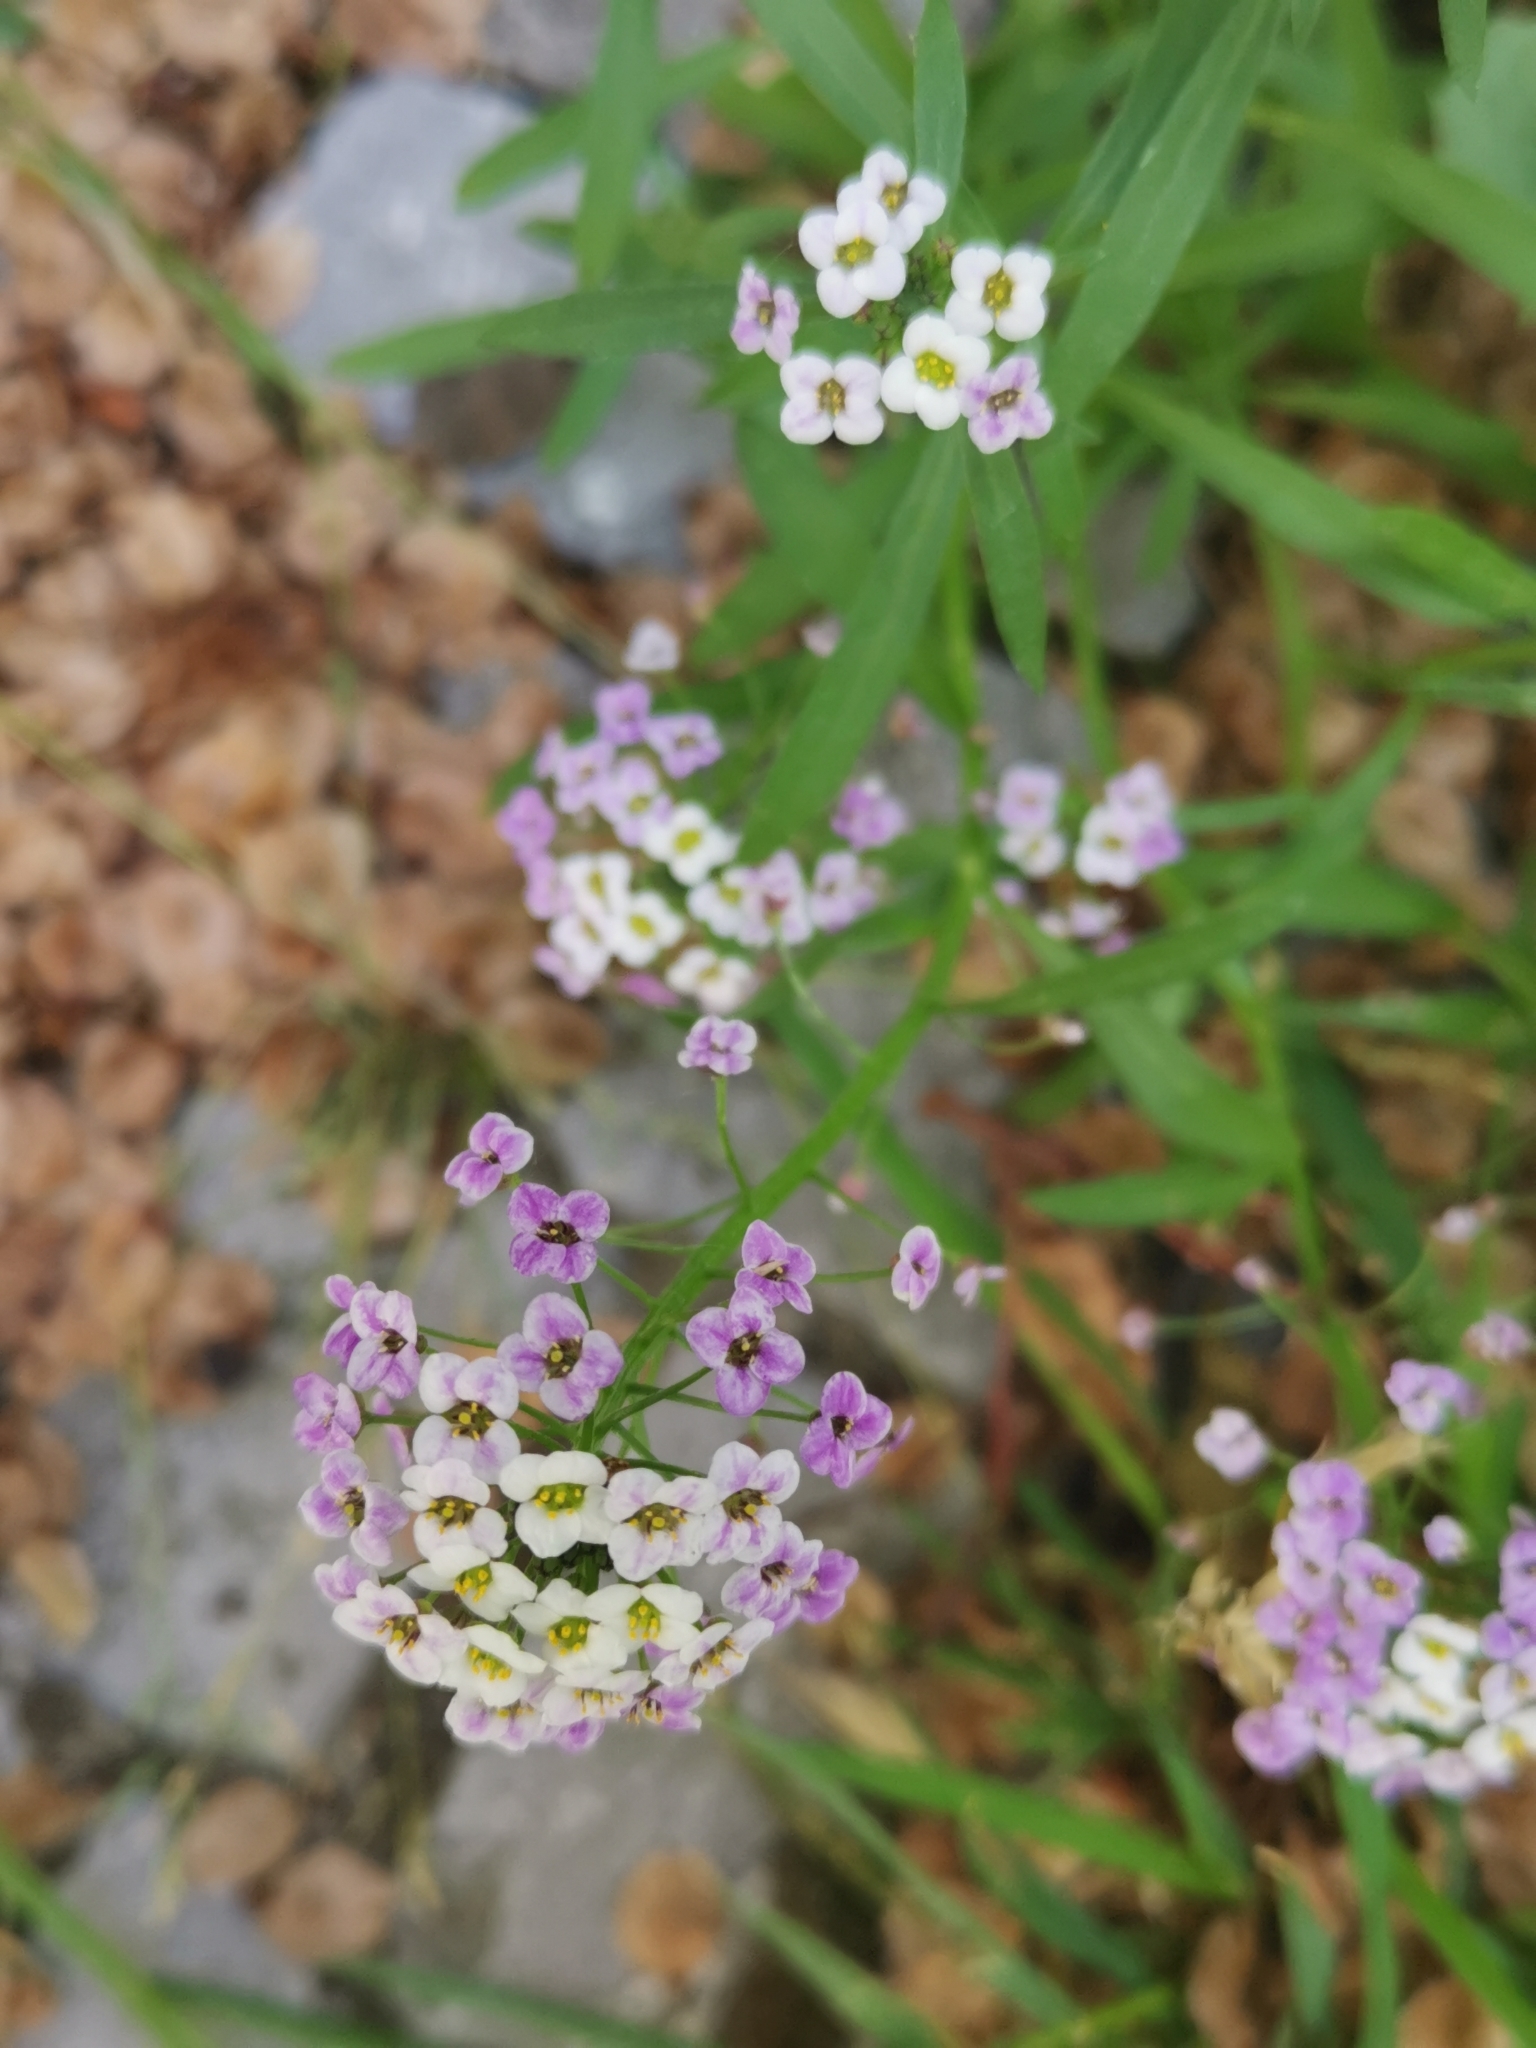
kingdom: Plantae
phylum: Tracheophyta
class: Magnoliopsida
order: Brassicales
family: Brassicaceae
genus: Lobularia
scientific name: Lobularia maritima
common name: Sweet alison
